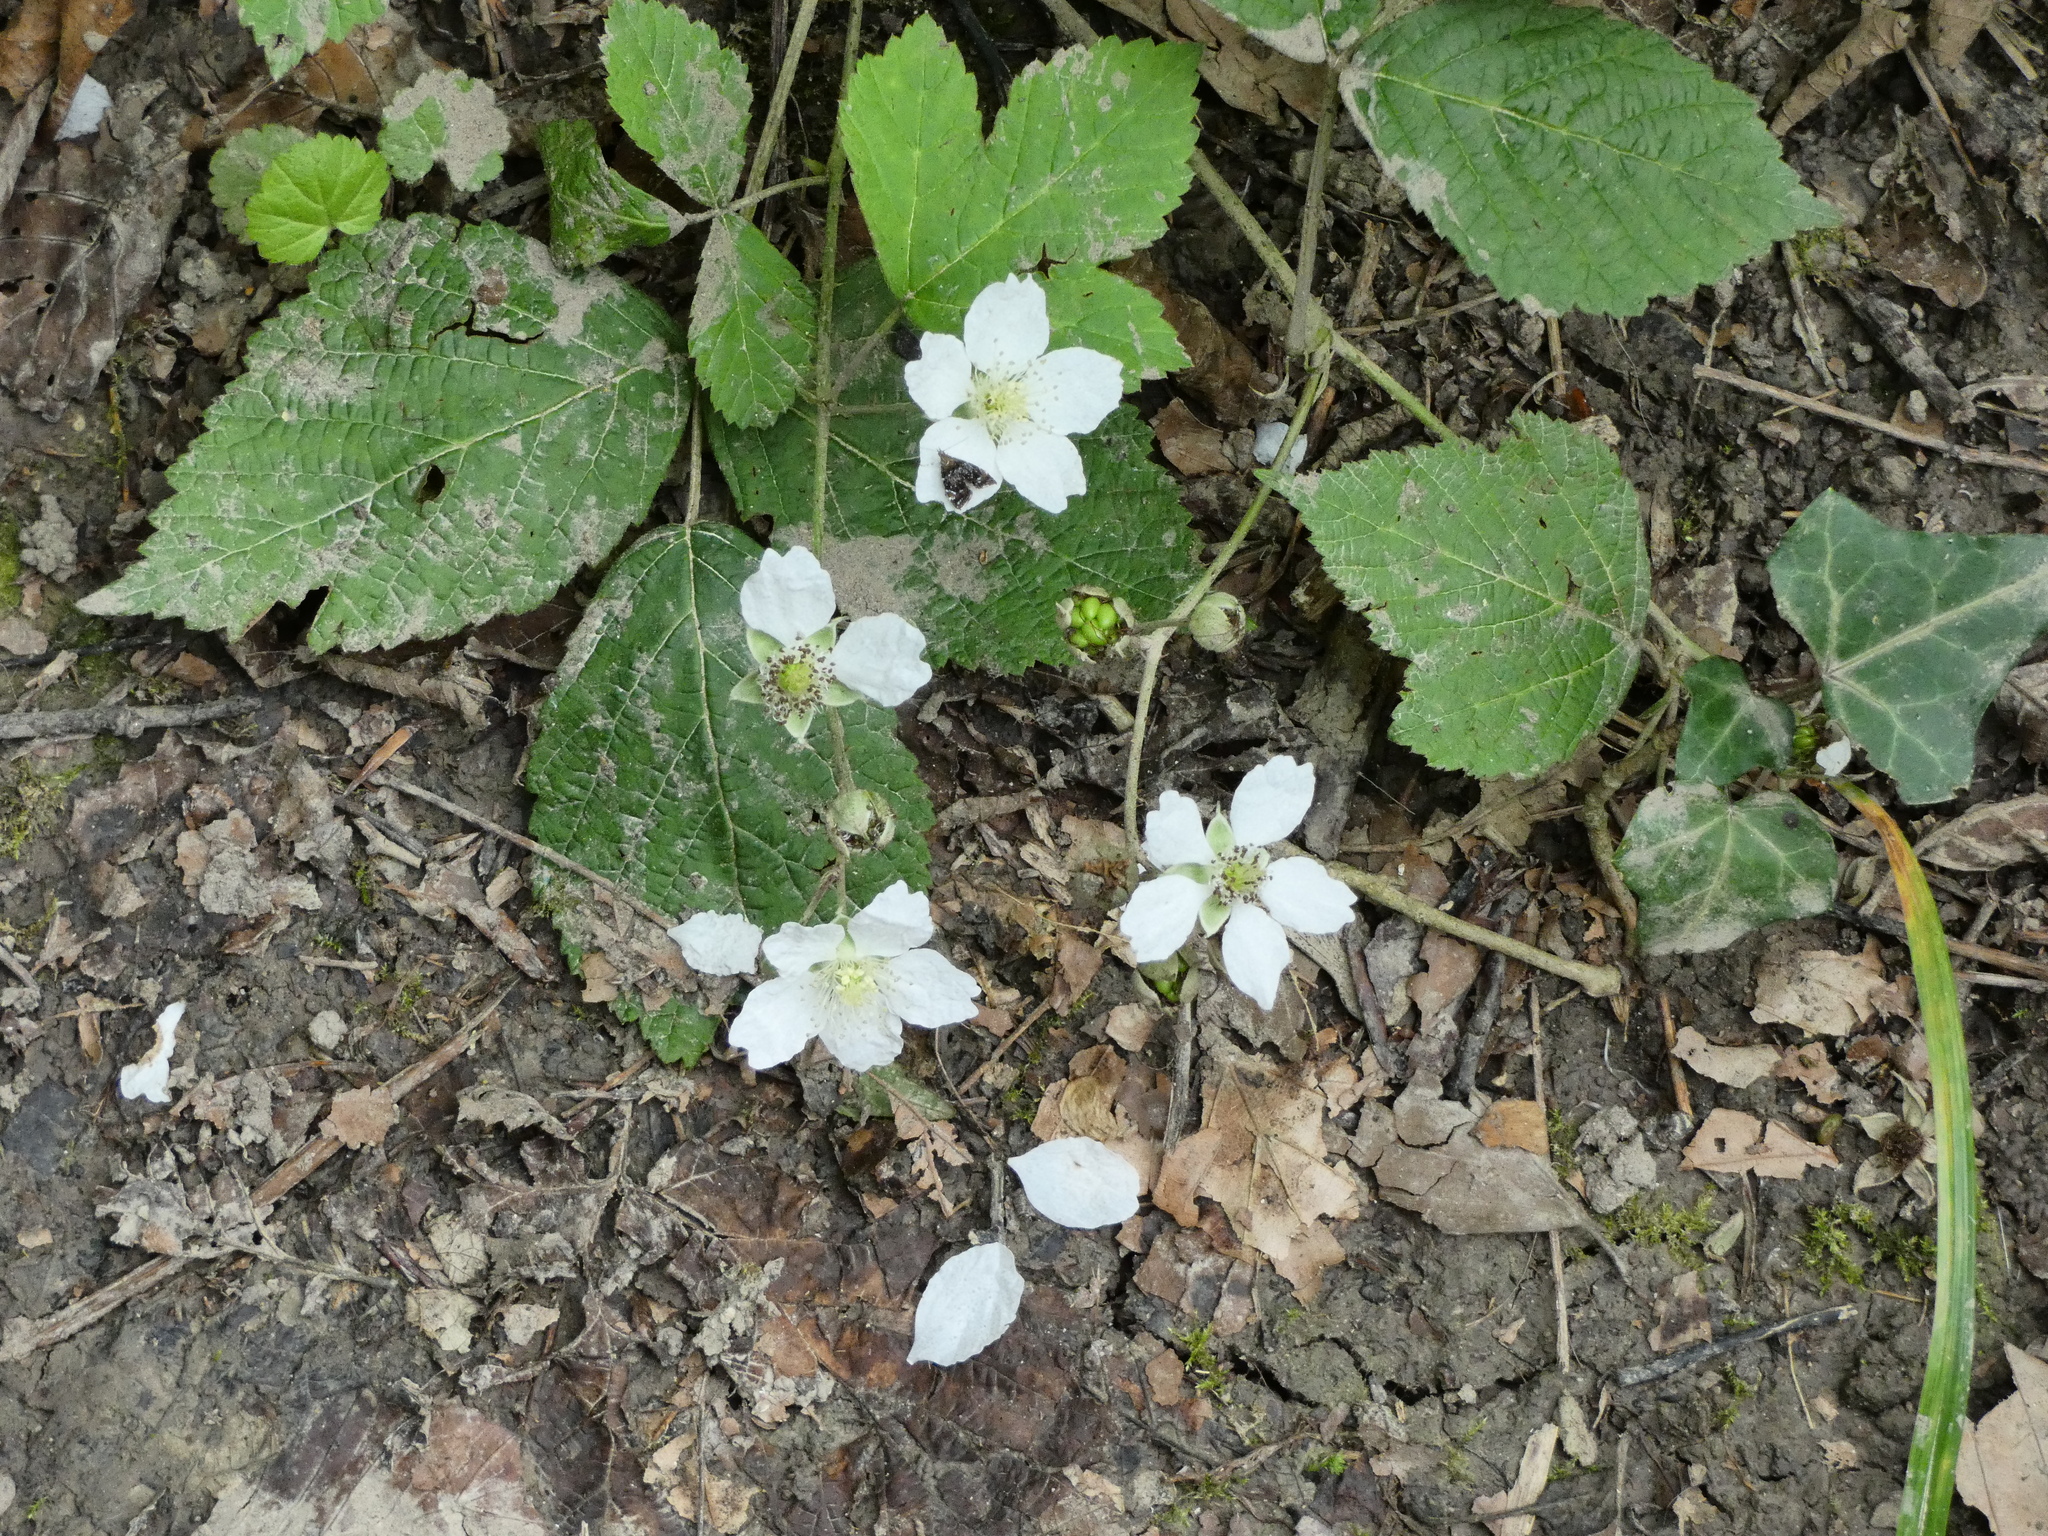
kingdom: Plantae
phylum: Tracheophyta
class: Magnoliopsida
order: Rosales
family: Rosaceae
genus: Rubus
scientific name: Rubus caesius
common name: Dewberry
